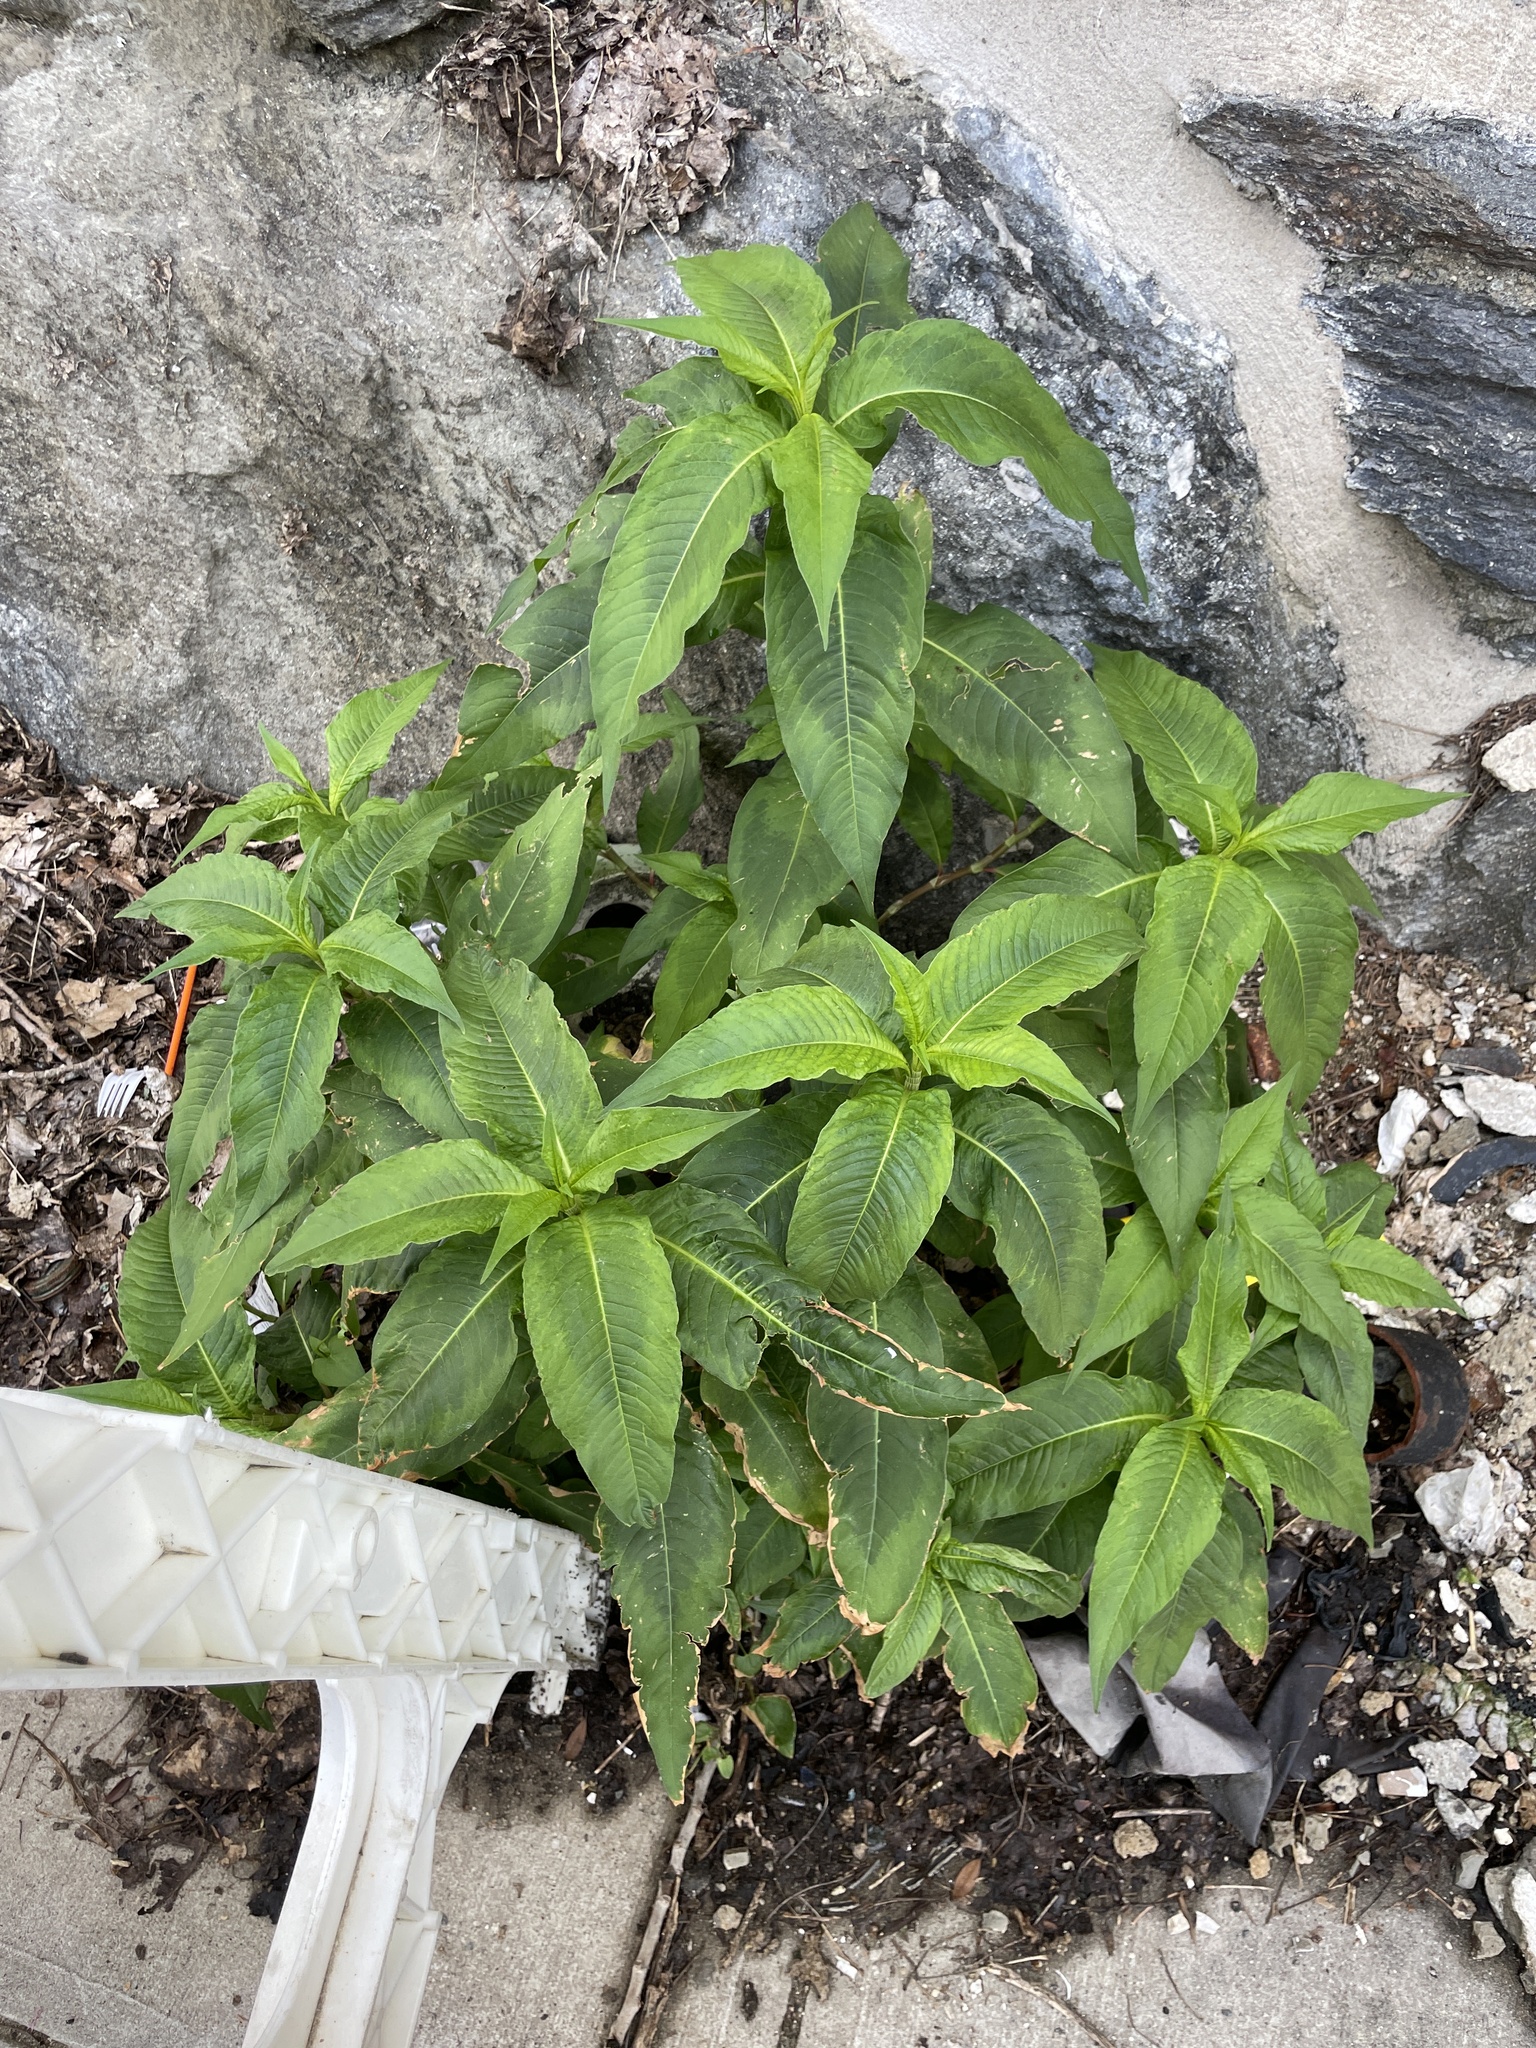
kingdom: Plantae
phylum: Tracheophyta
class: Magnoliopsida
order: Caryophyllales
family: Polygonaceae
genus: Persicaria
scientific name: Persicaria extremiorientalis
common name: Far-eastern smartweed
